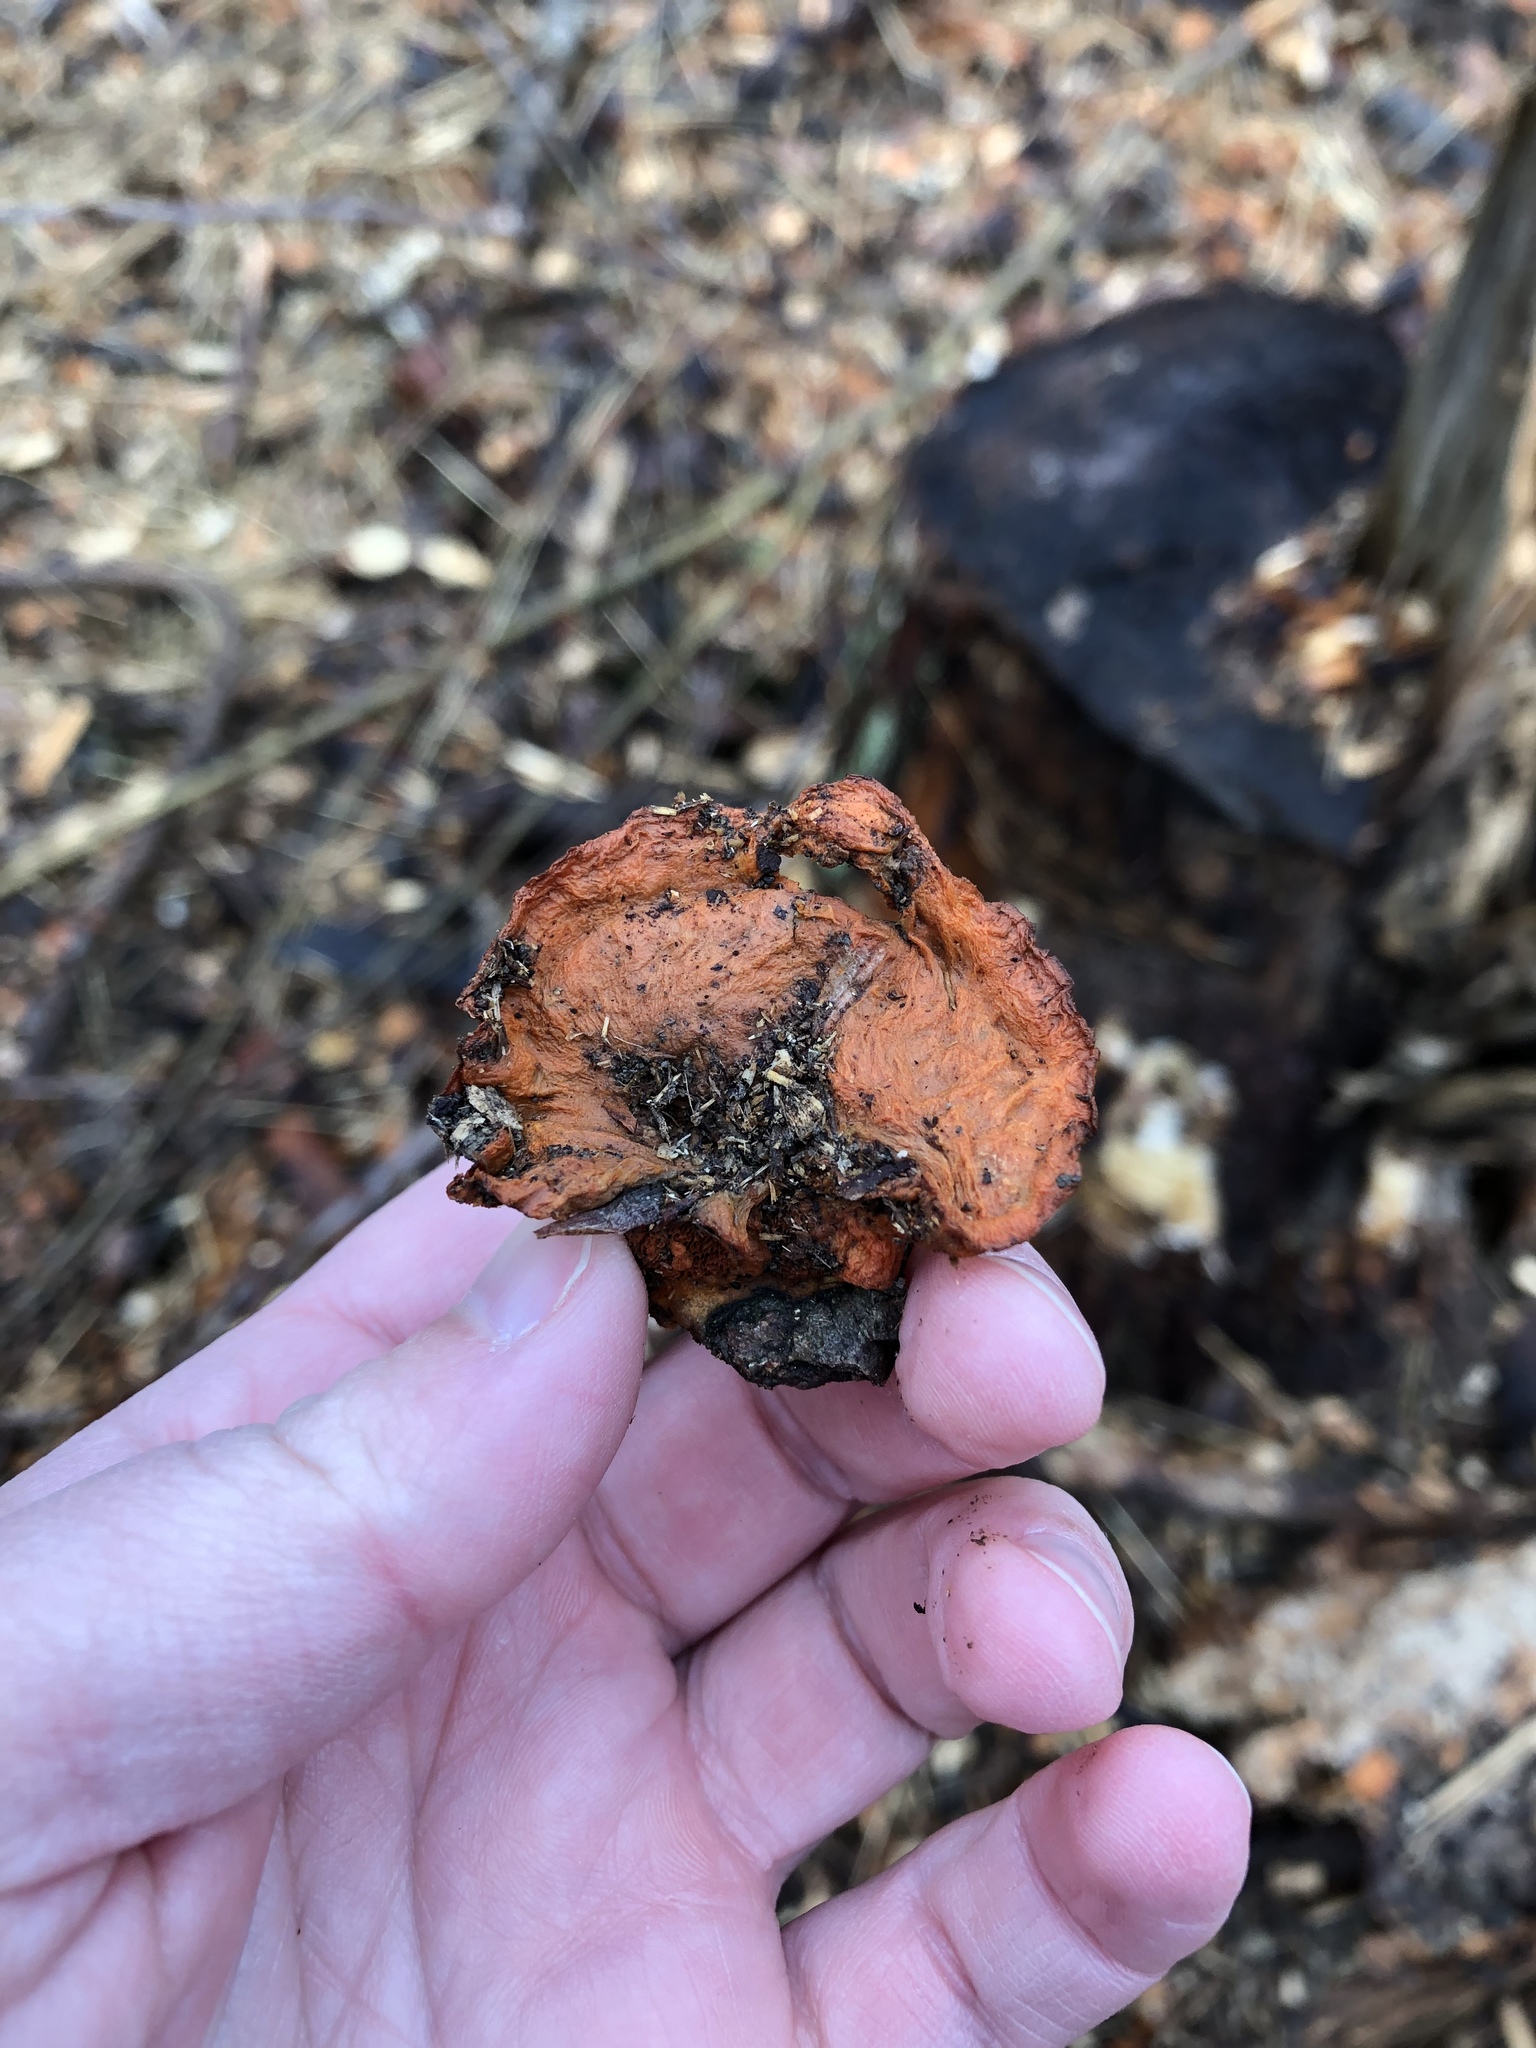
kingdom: Fungi
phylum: Basidiomycota
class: Agaricomycetes
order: Polyporales
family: Polyporaceae
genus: Trametes
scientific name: Trametes cinnabarina
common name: Northern cinnabar polypore
